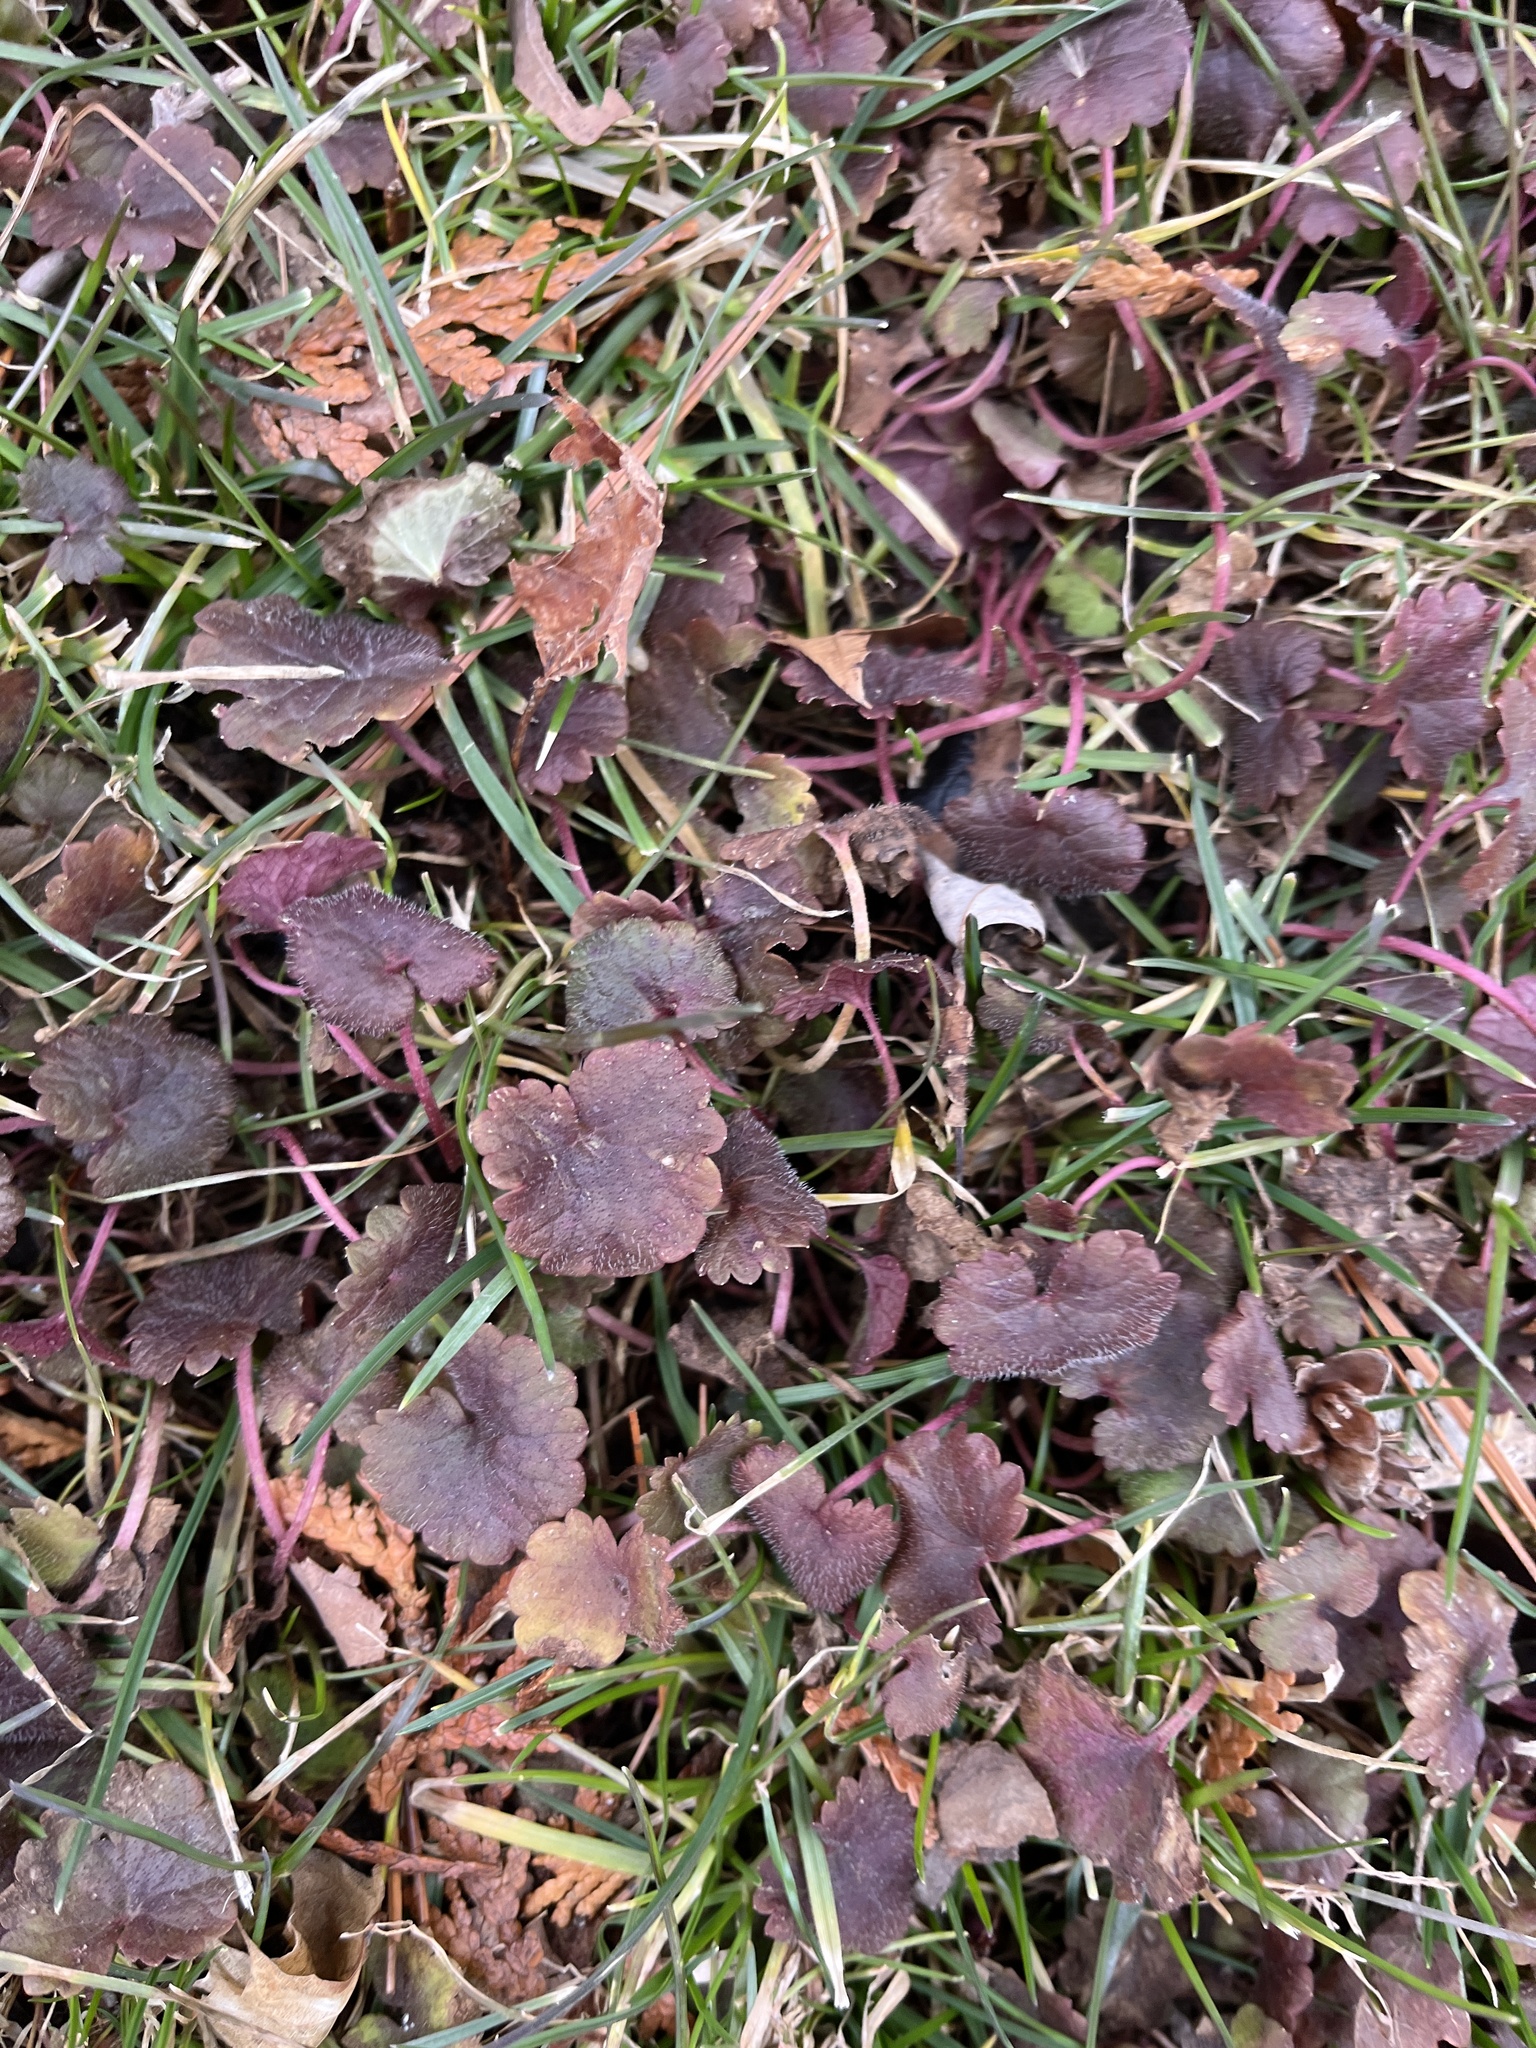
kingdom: Plantae
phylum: Tracheophyta
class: Magnoliopsida
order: Lamiales
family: Lamiaceae
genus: Glechoma
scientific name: Glechoma hederacea
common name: Ground ivy
